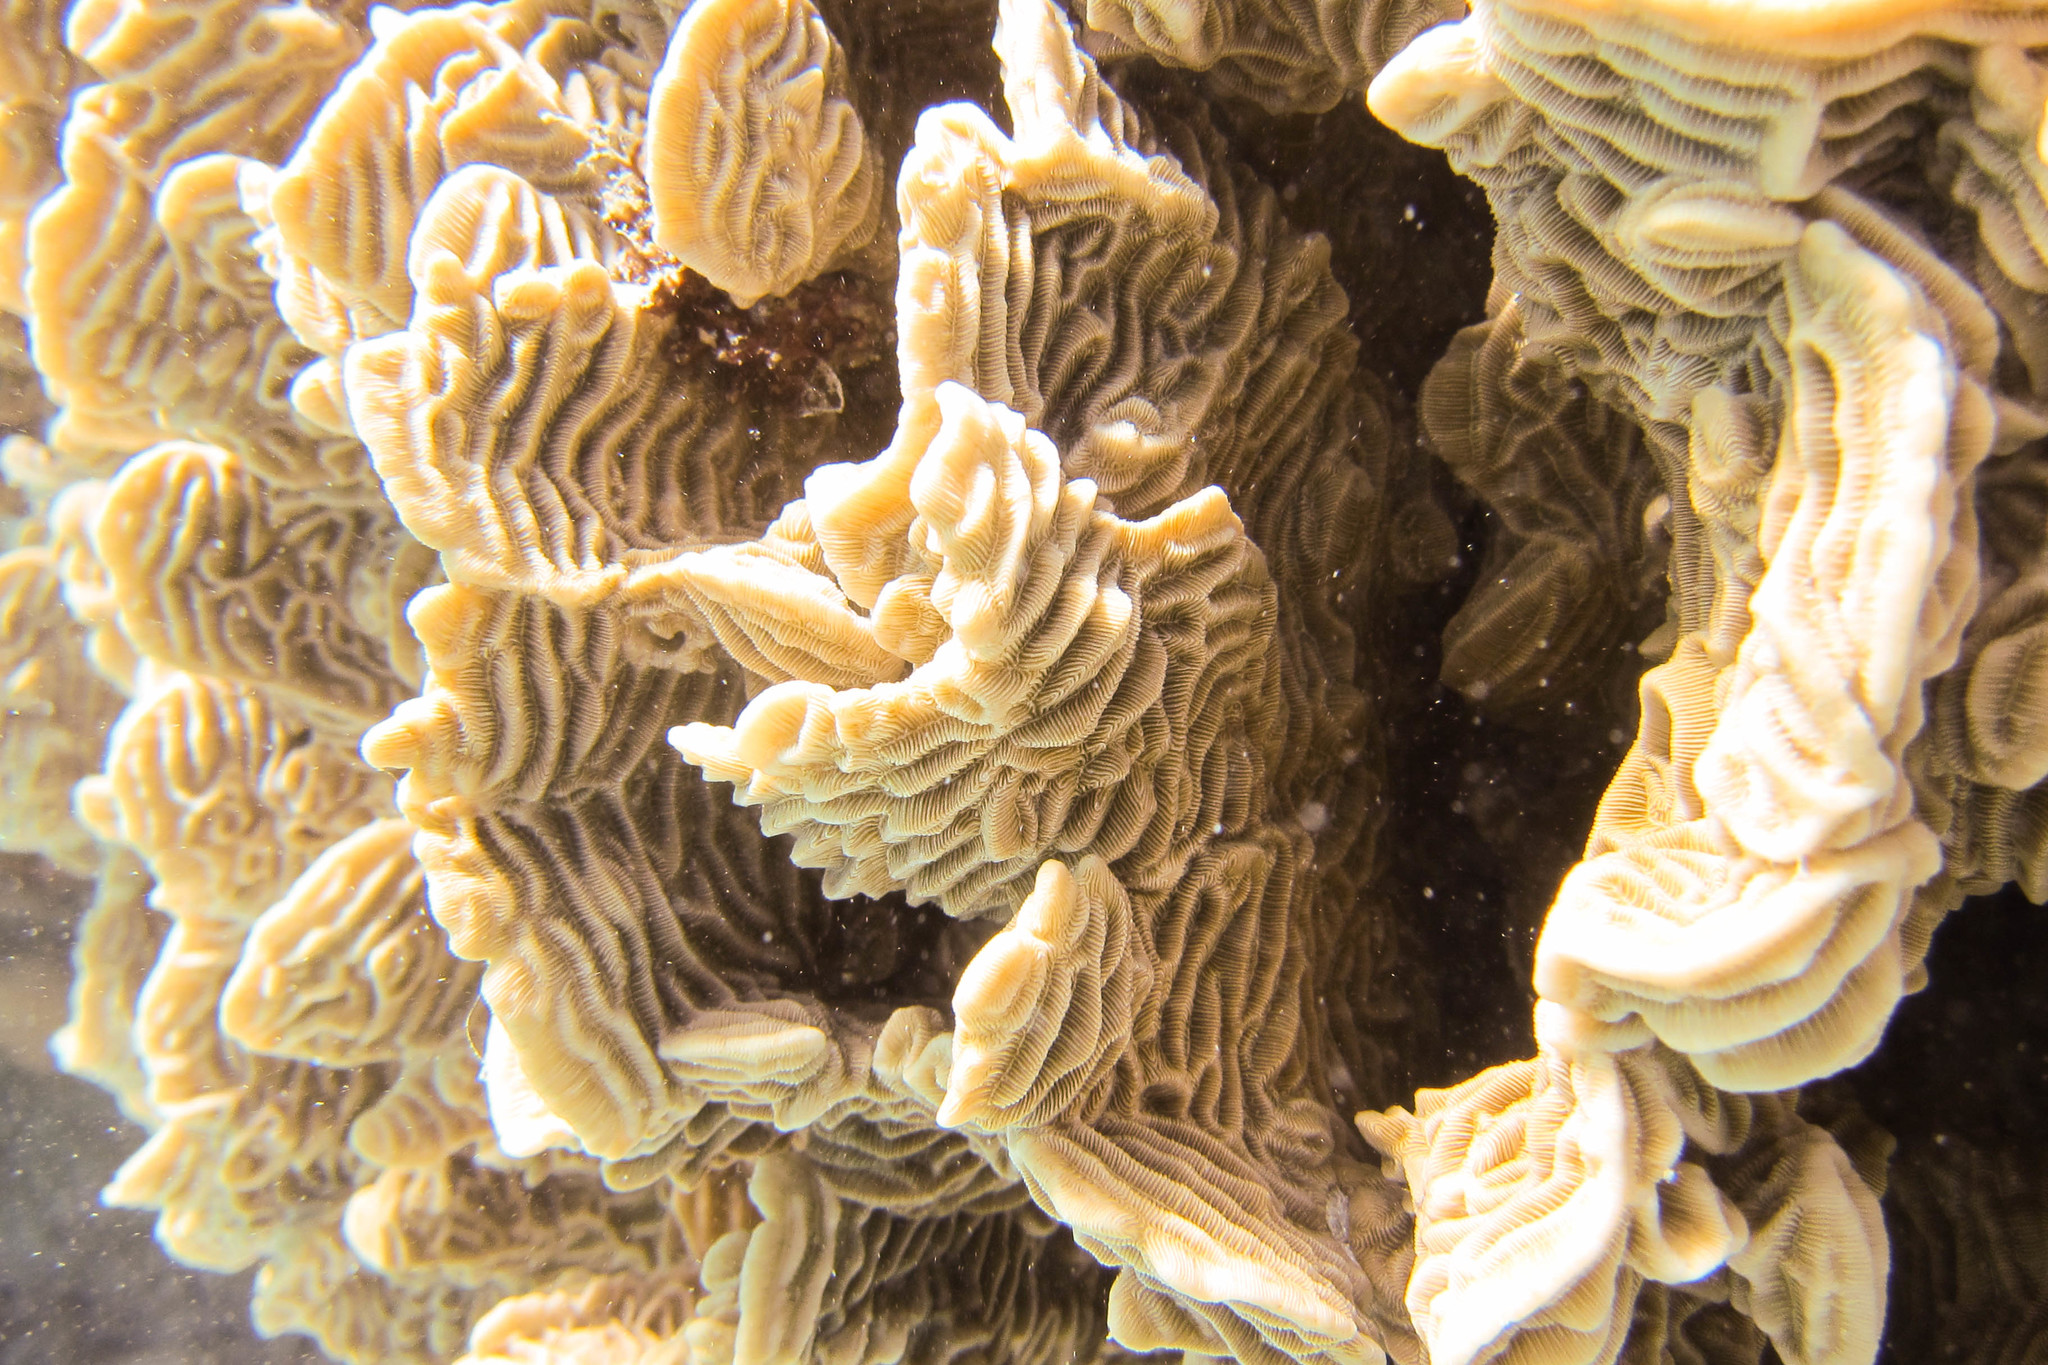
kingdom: Animalia
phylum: Cnidaria
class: Anthozoa
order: Scleractinia
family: Pachyseridae
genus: Pachyseris
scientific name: Pachyseris rugosa
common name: Serpent coral
